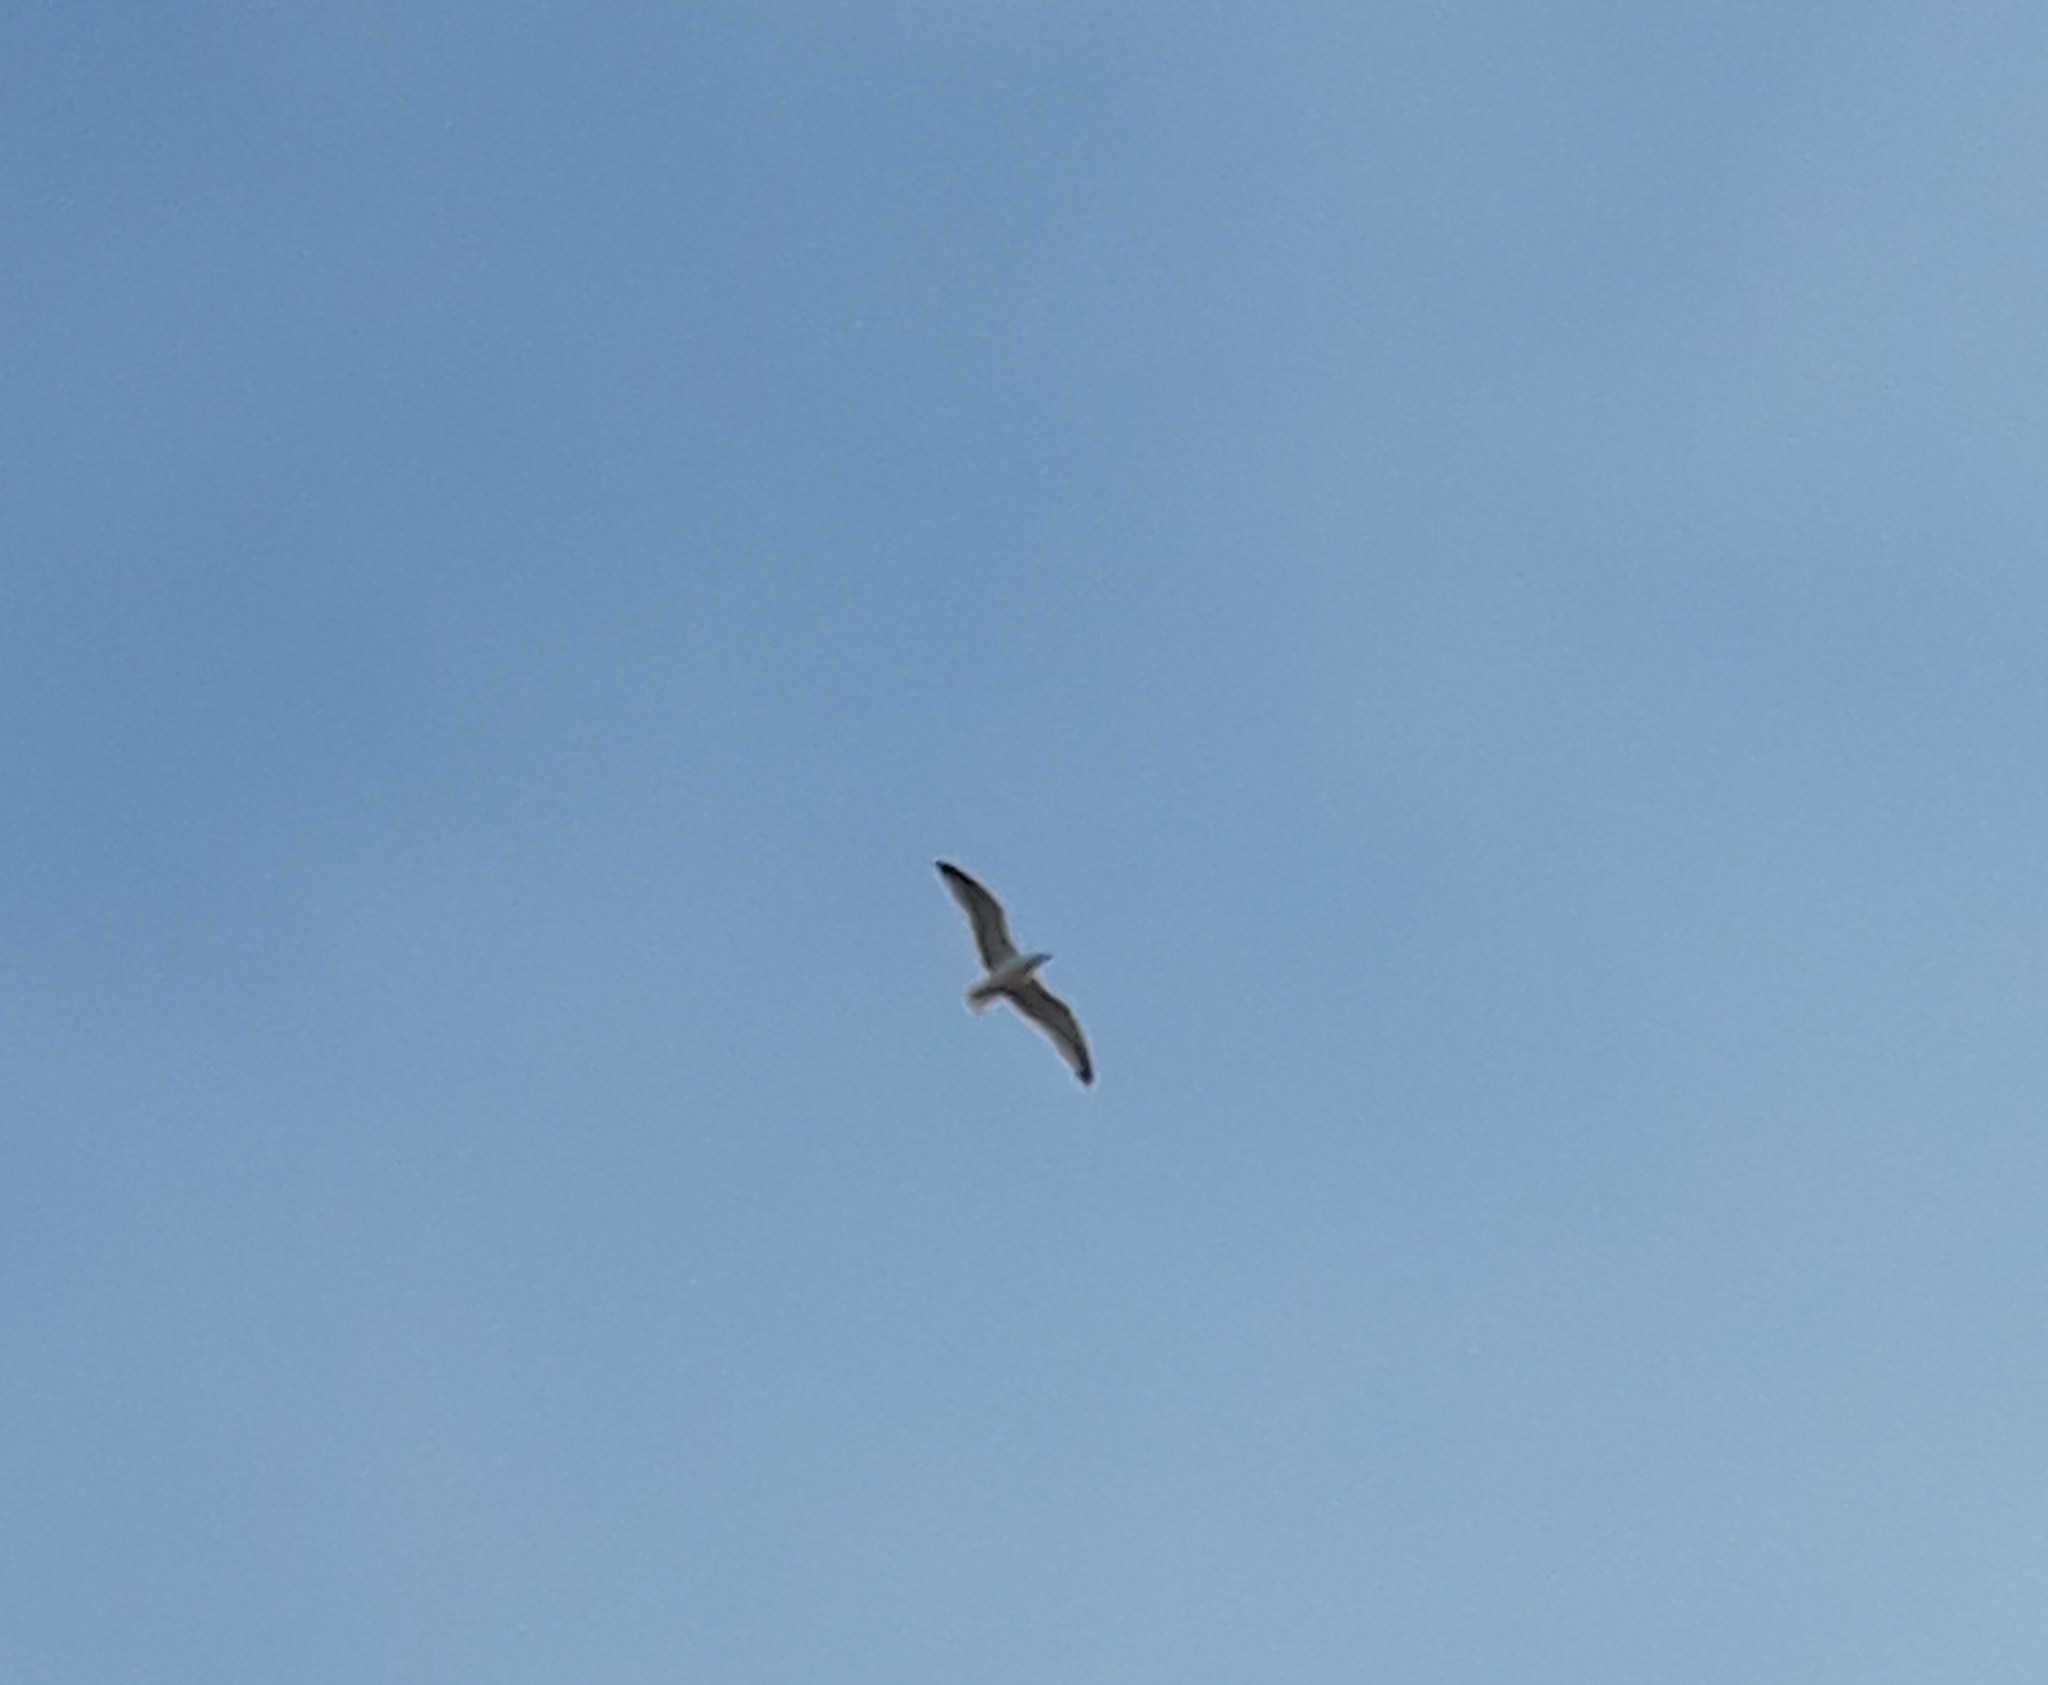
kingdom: Animalia
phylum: Chordata
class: Aves
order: Charadriiformes
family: Laridae
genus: Larus
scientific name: Larus michahellis
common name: Yellow-legged gull
